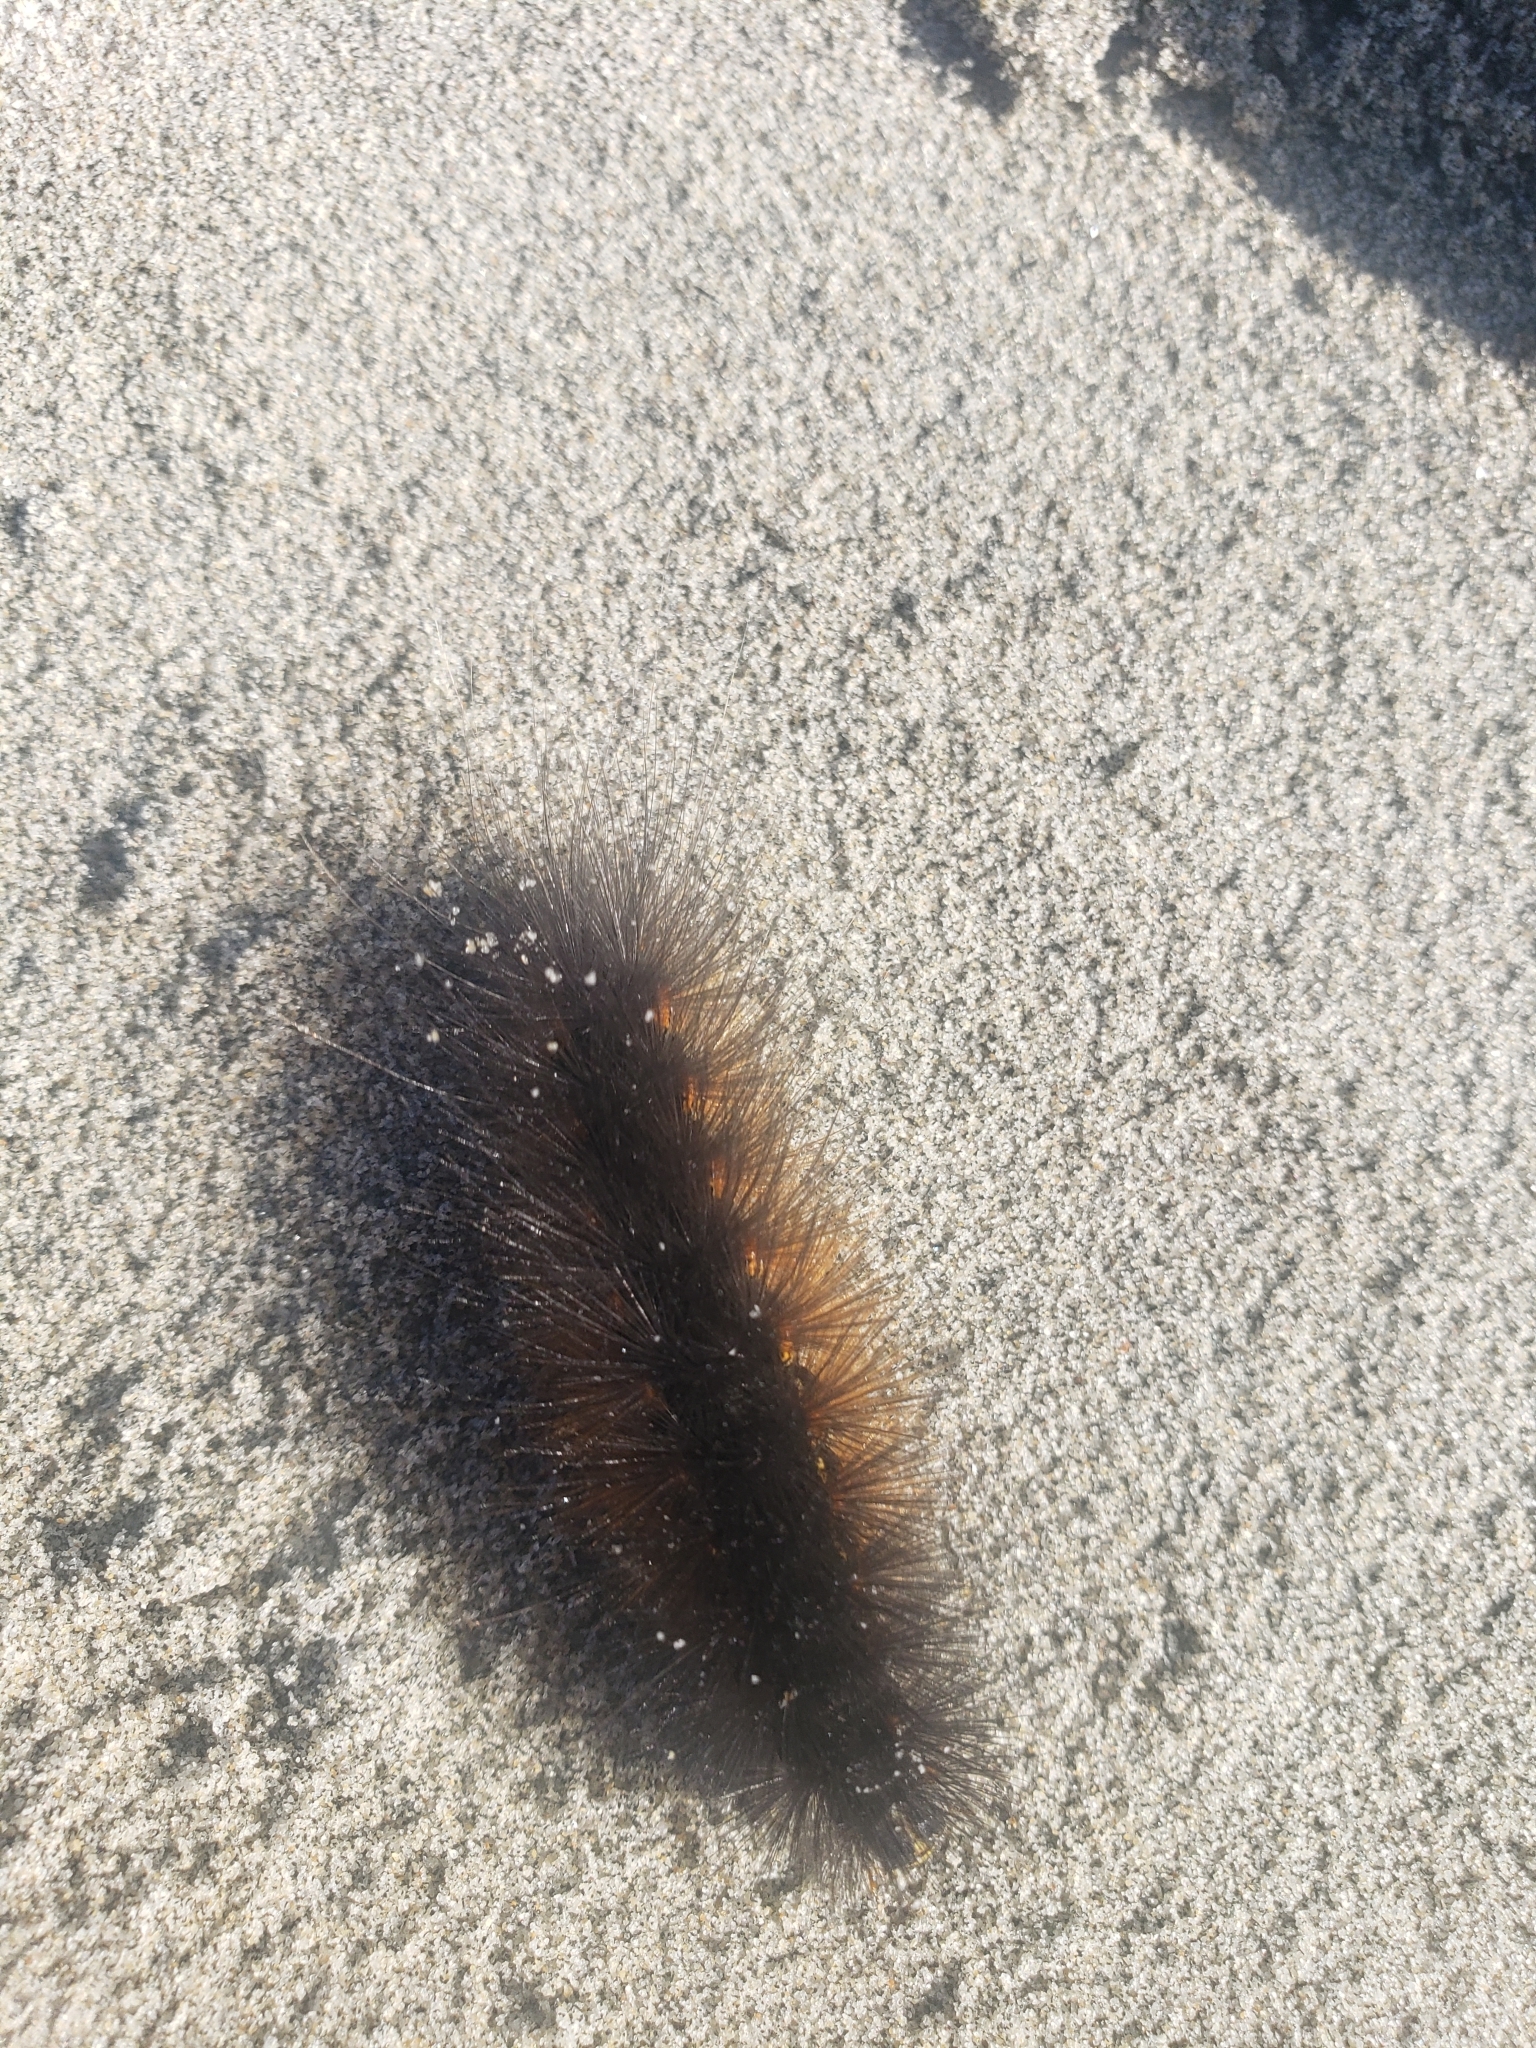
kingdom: Animalia
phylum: Arthropoda
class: Insecta
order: Lepidoptera
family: Erebidae
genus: Estigmene
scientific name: Estigmene acrea
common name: Salt marsh moth
